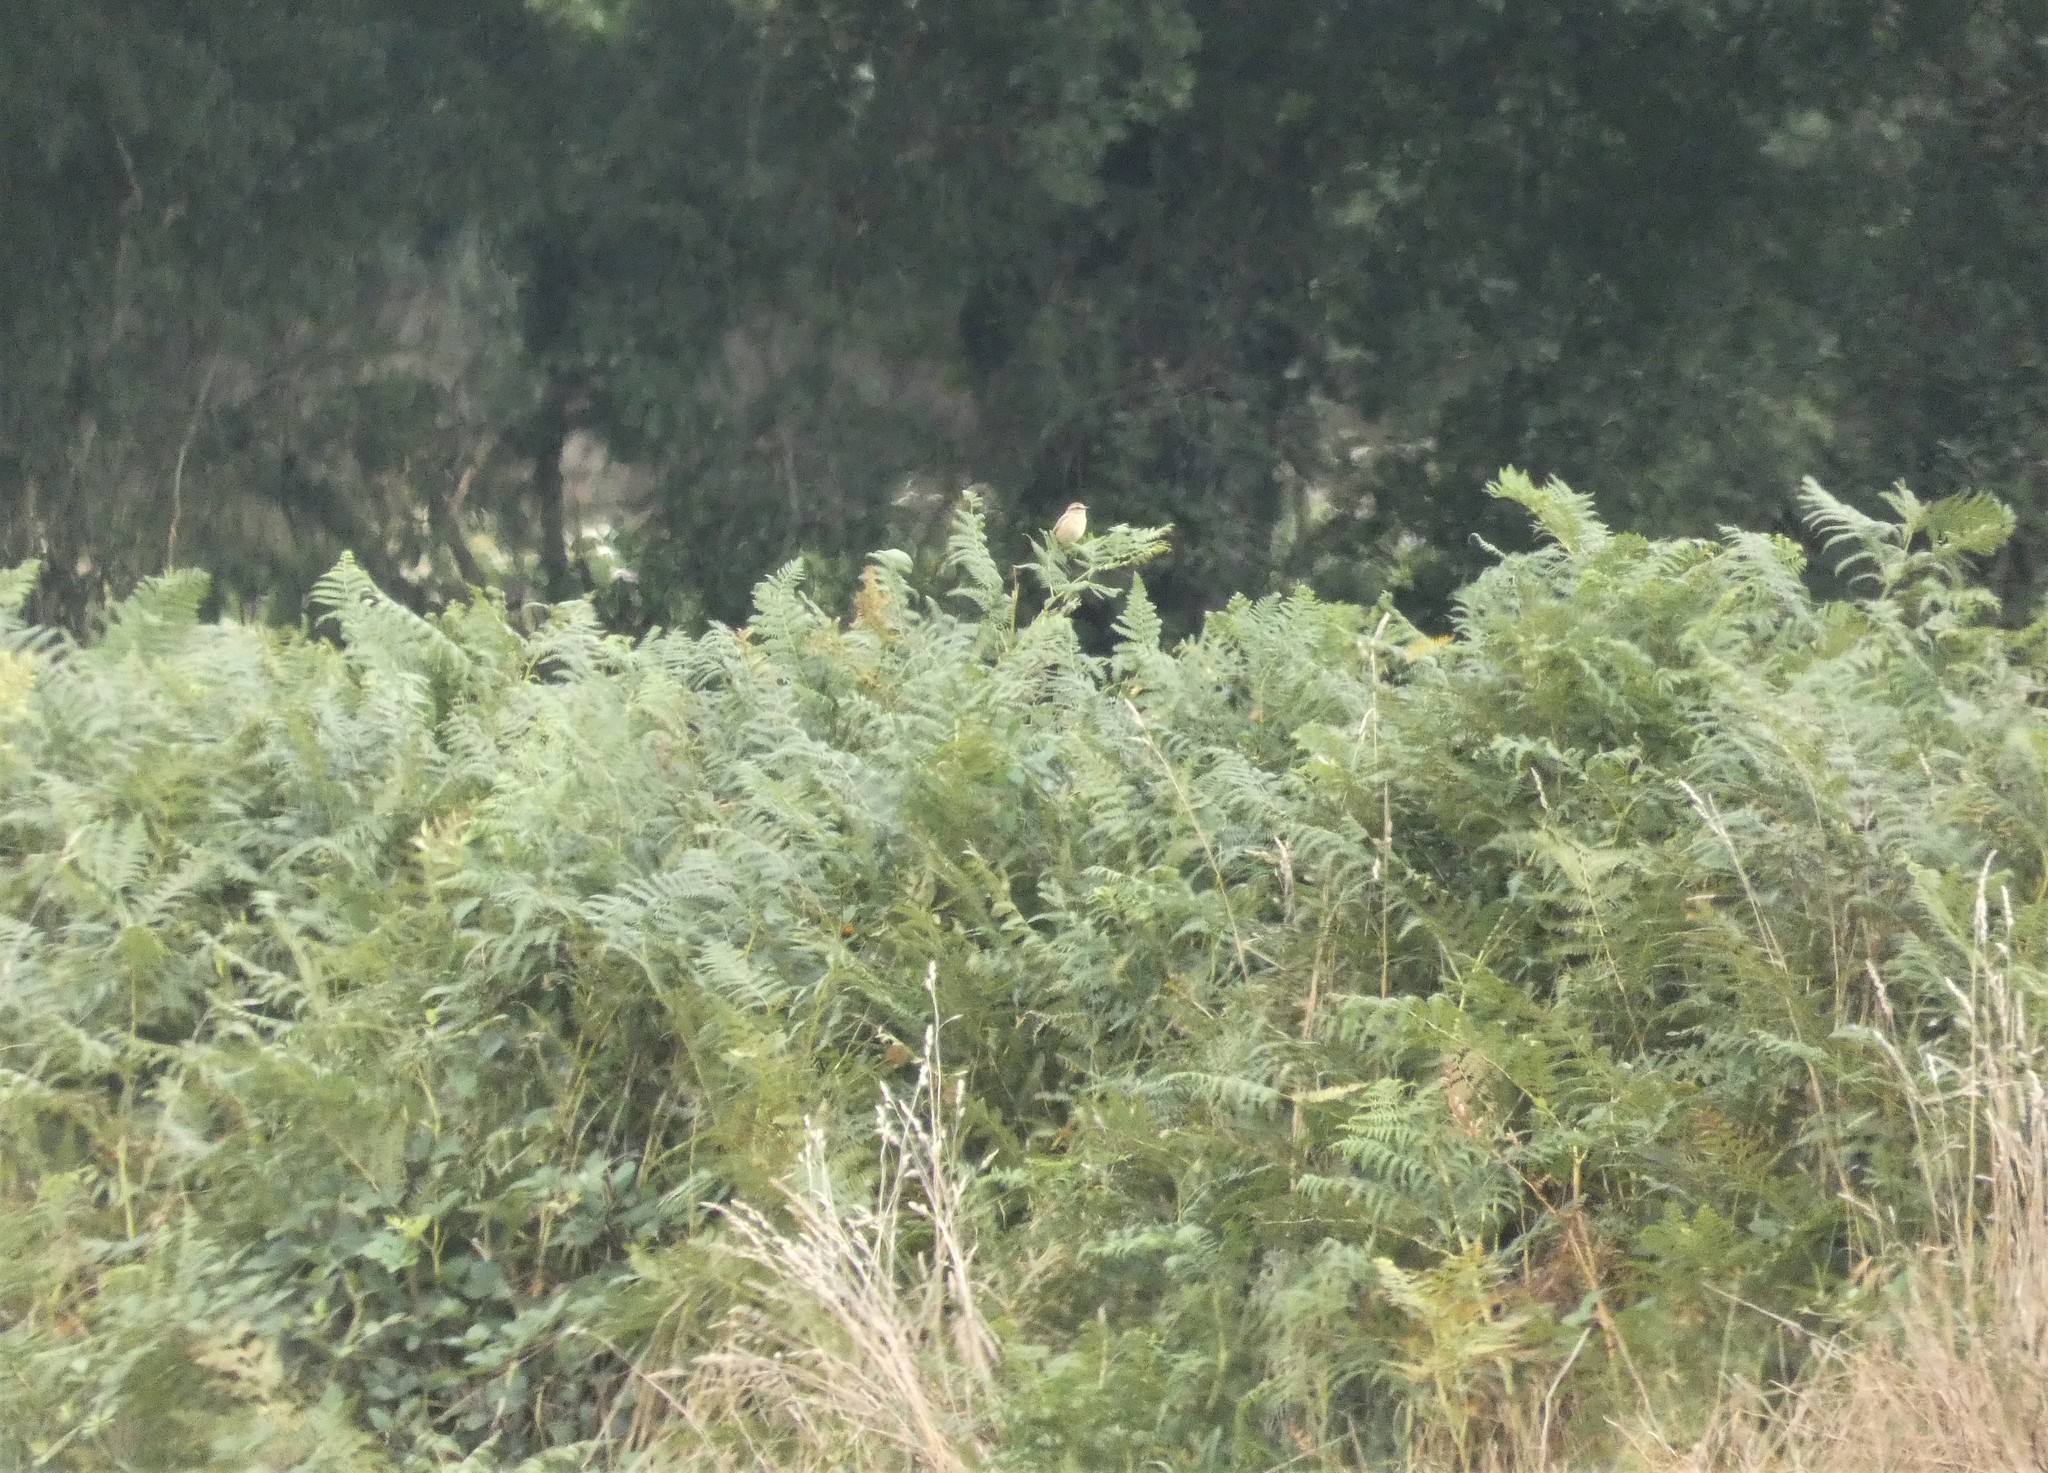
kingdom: Animalia
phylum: Chordata
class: Aves
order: Passeriformes
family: Muscicapidae
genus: Saxicola
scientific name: Saxicola rubetra
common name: Whinchat
